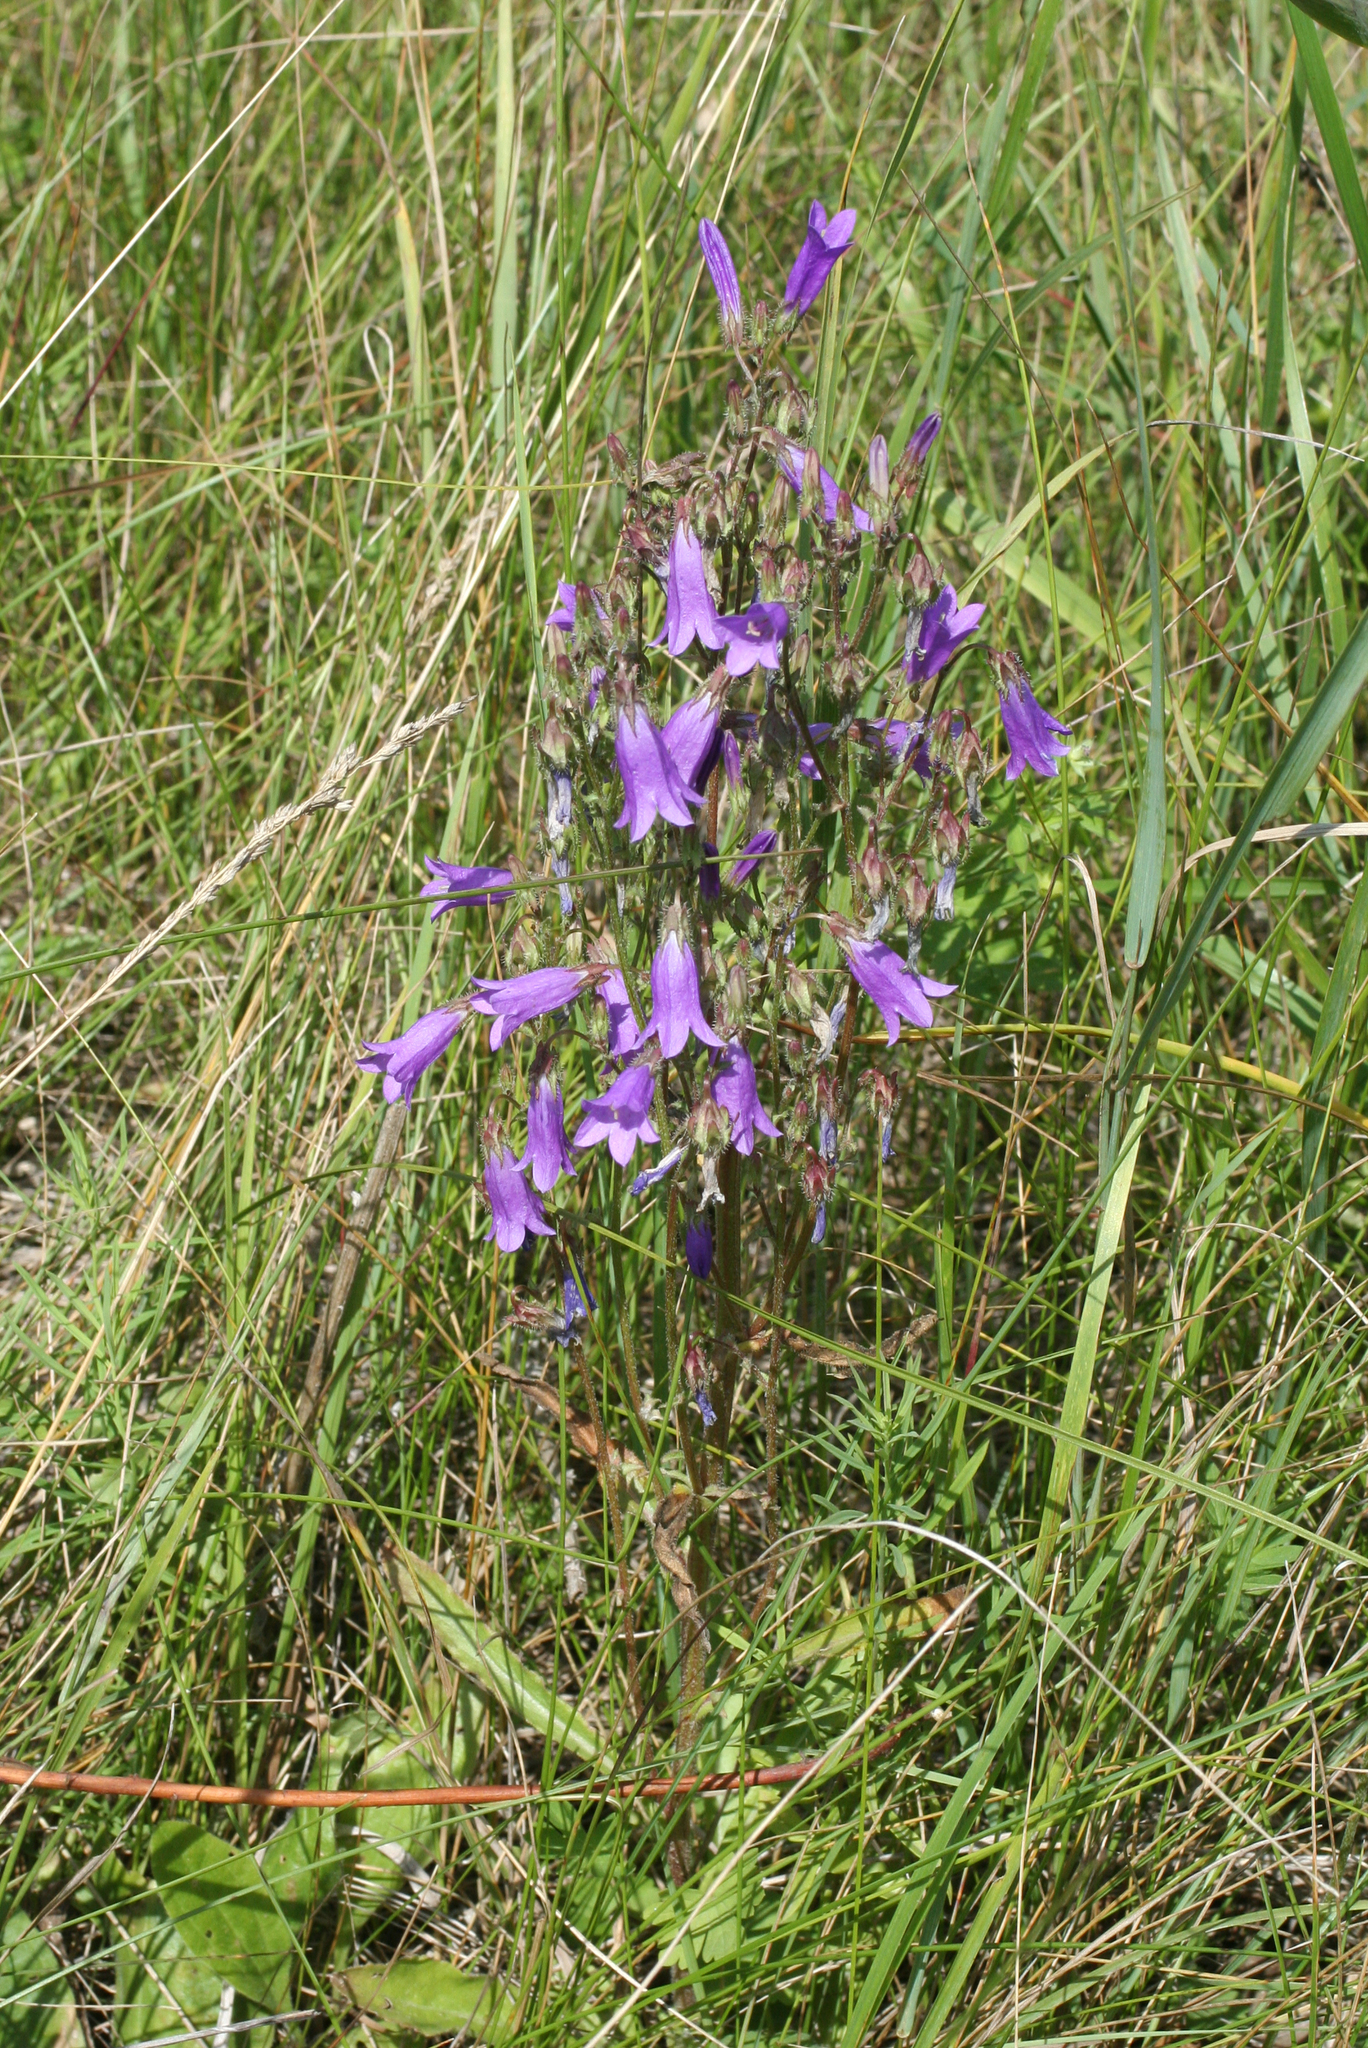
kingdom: Plantae
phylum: Tracheophyta
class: Magnoliopsida
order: Asterales
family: Campanulaceae
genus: Campanula
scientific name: Campanula sibirica
